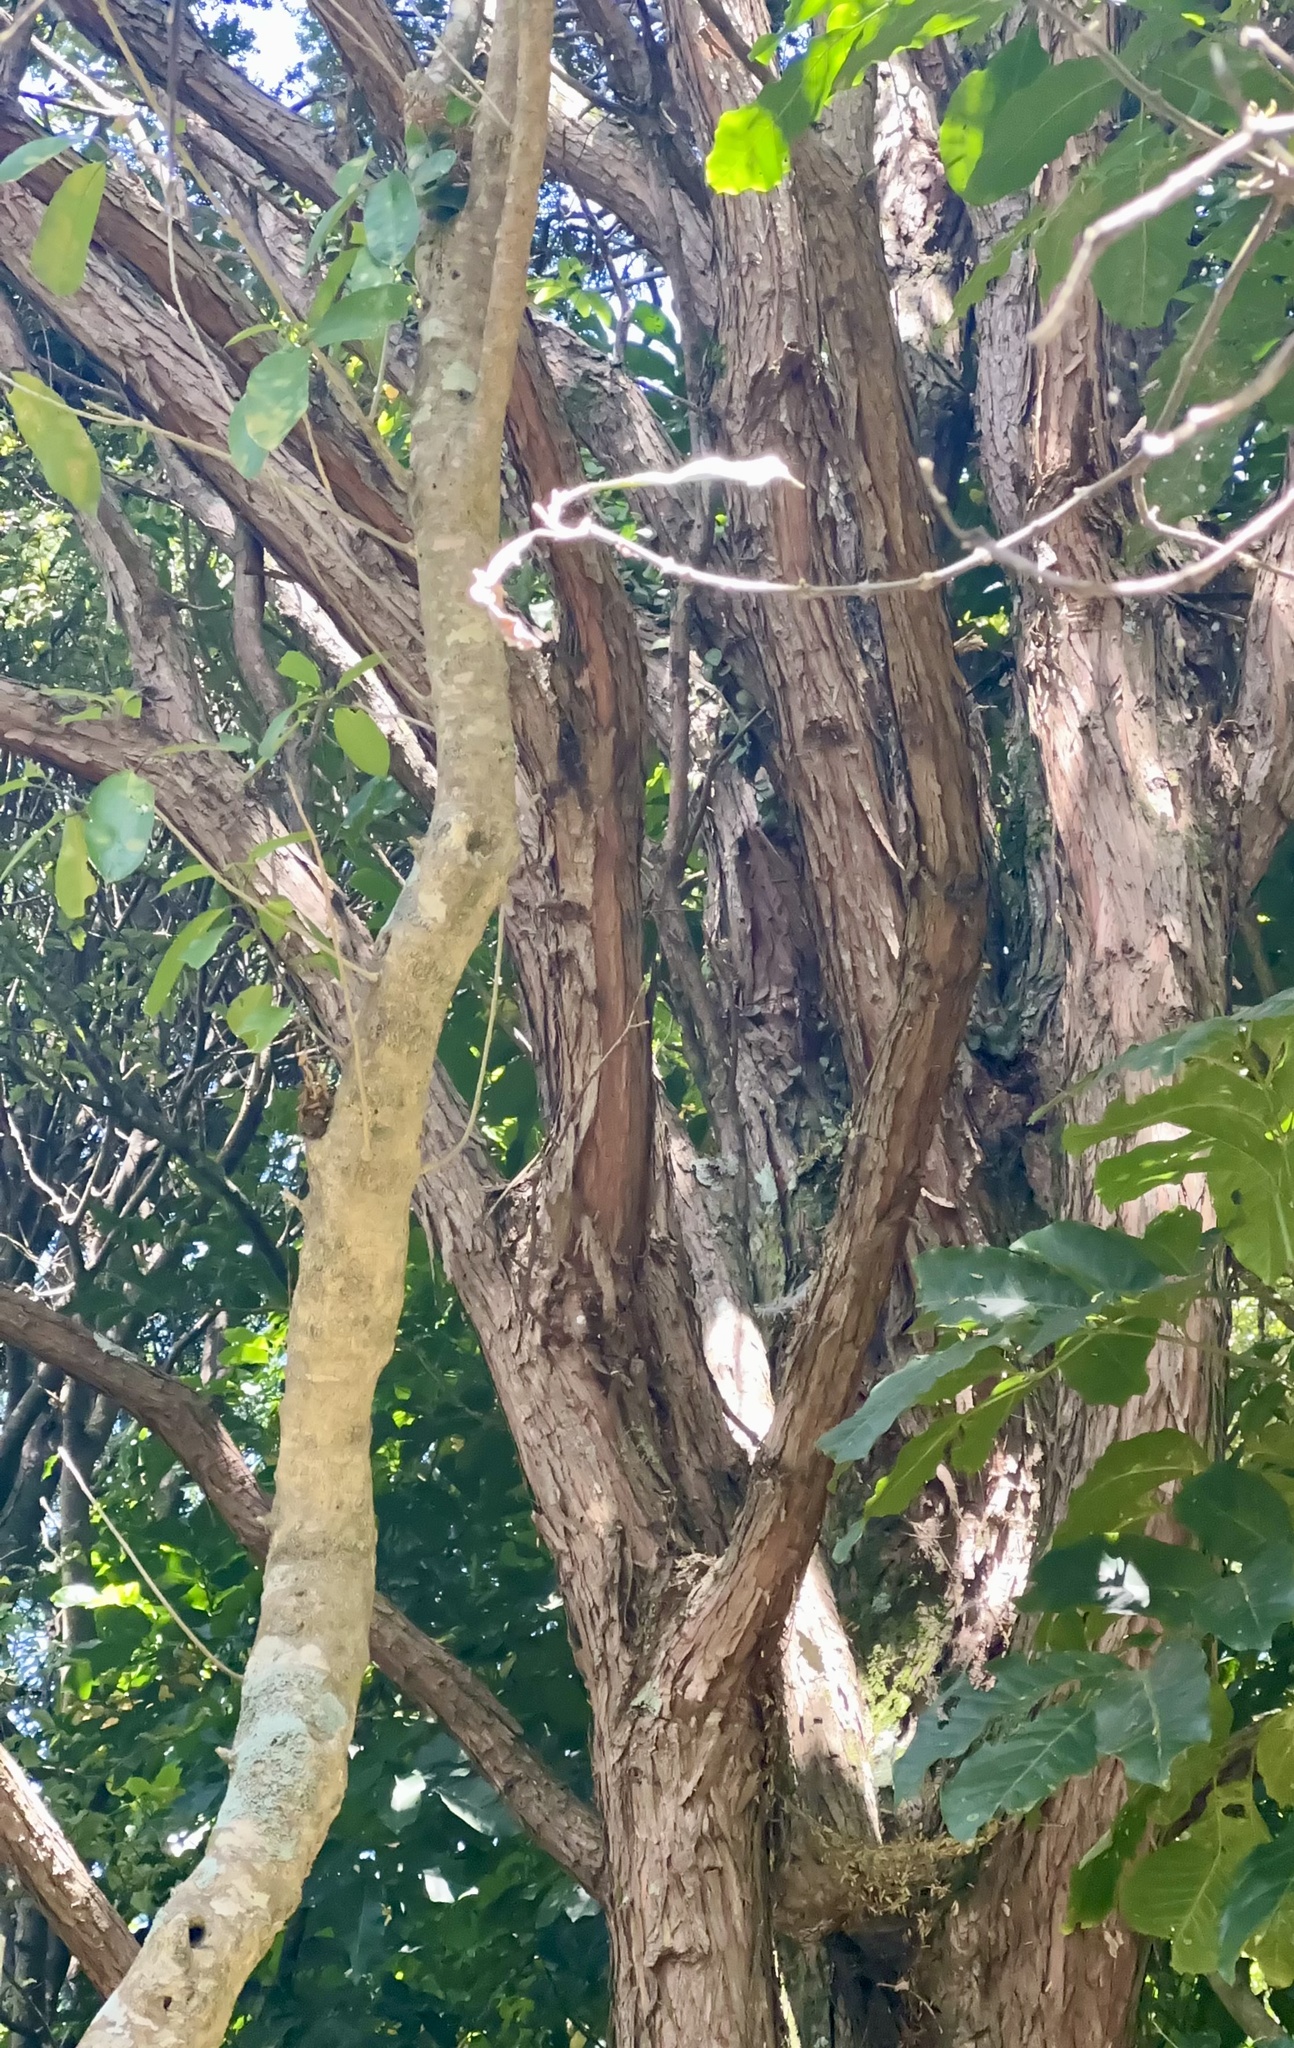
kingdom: Plantae
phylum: Tracheophyta
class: Pinopsida
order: Pinales
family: Podocarpaceae
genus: Podocarpus
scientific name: Podocarpus totara
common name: Totara
